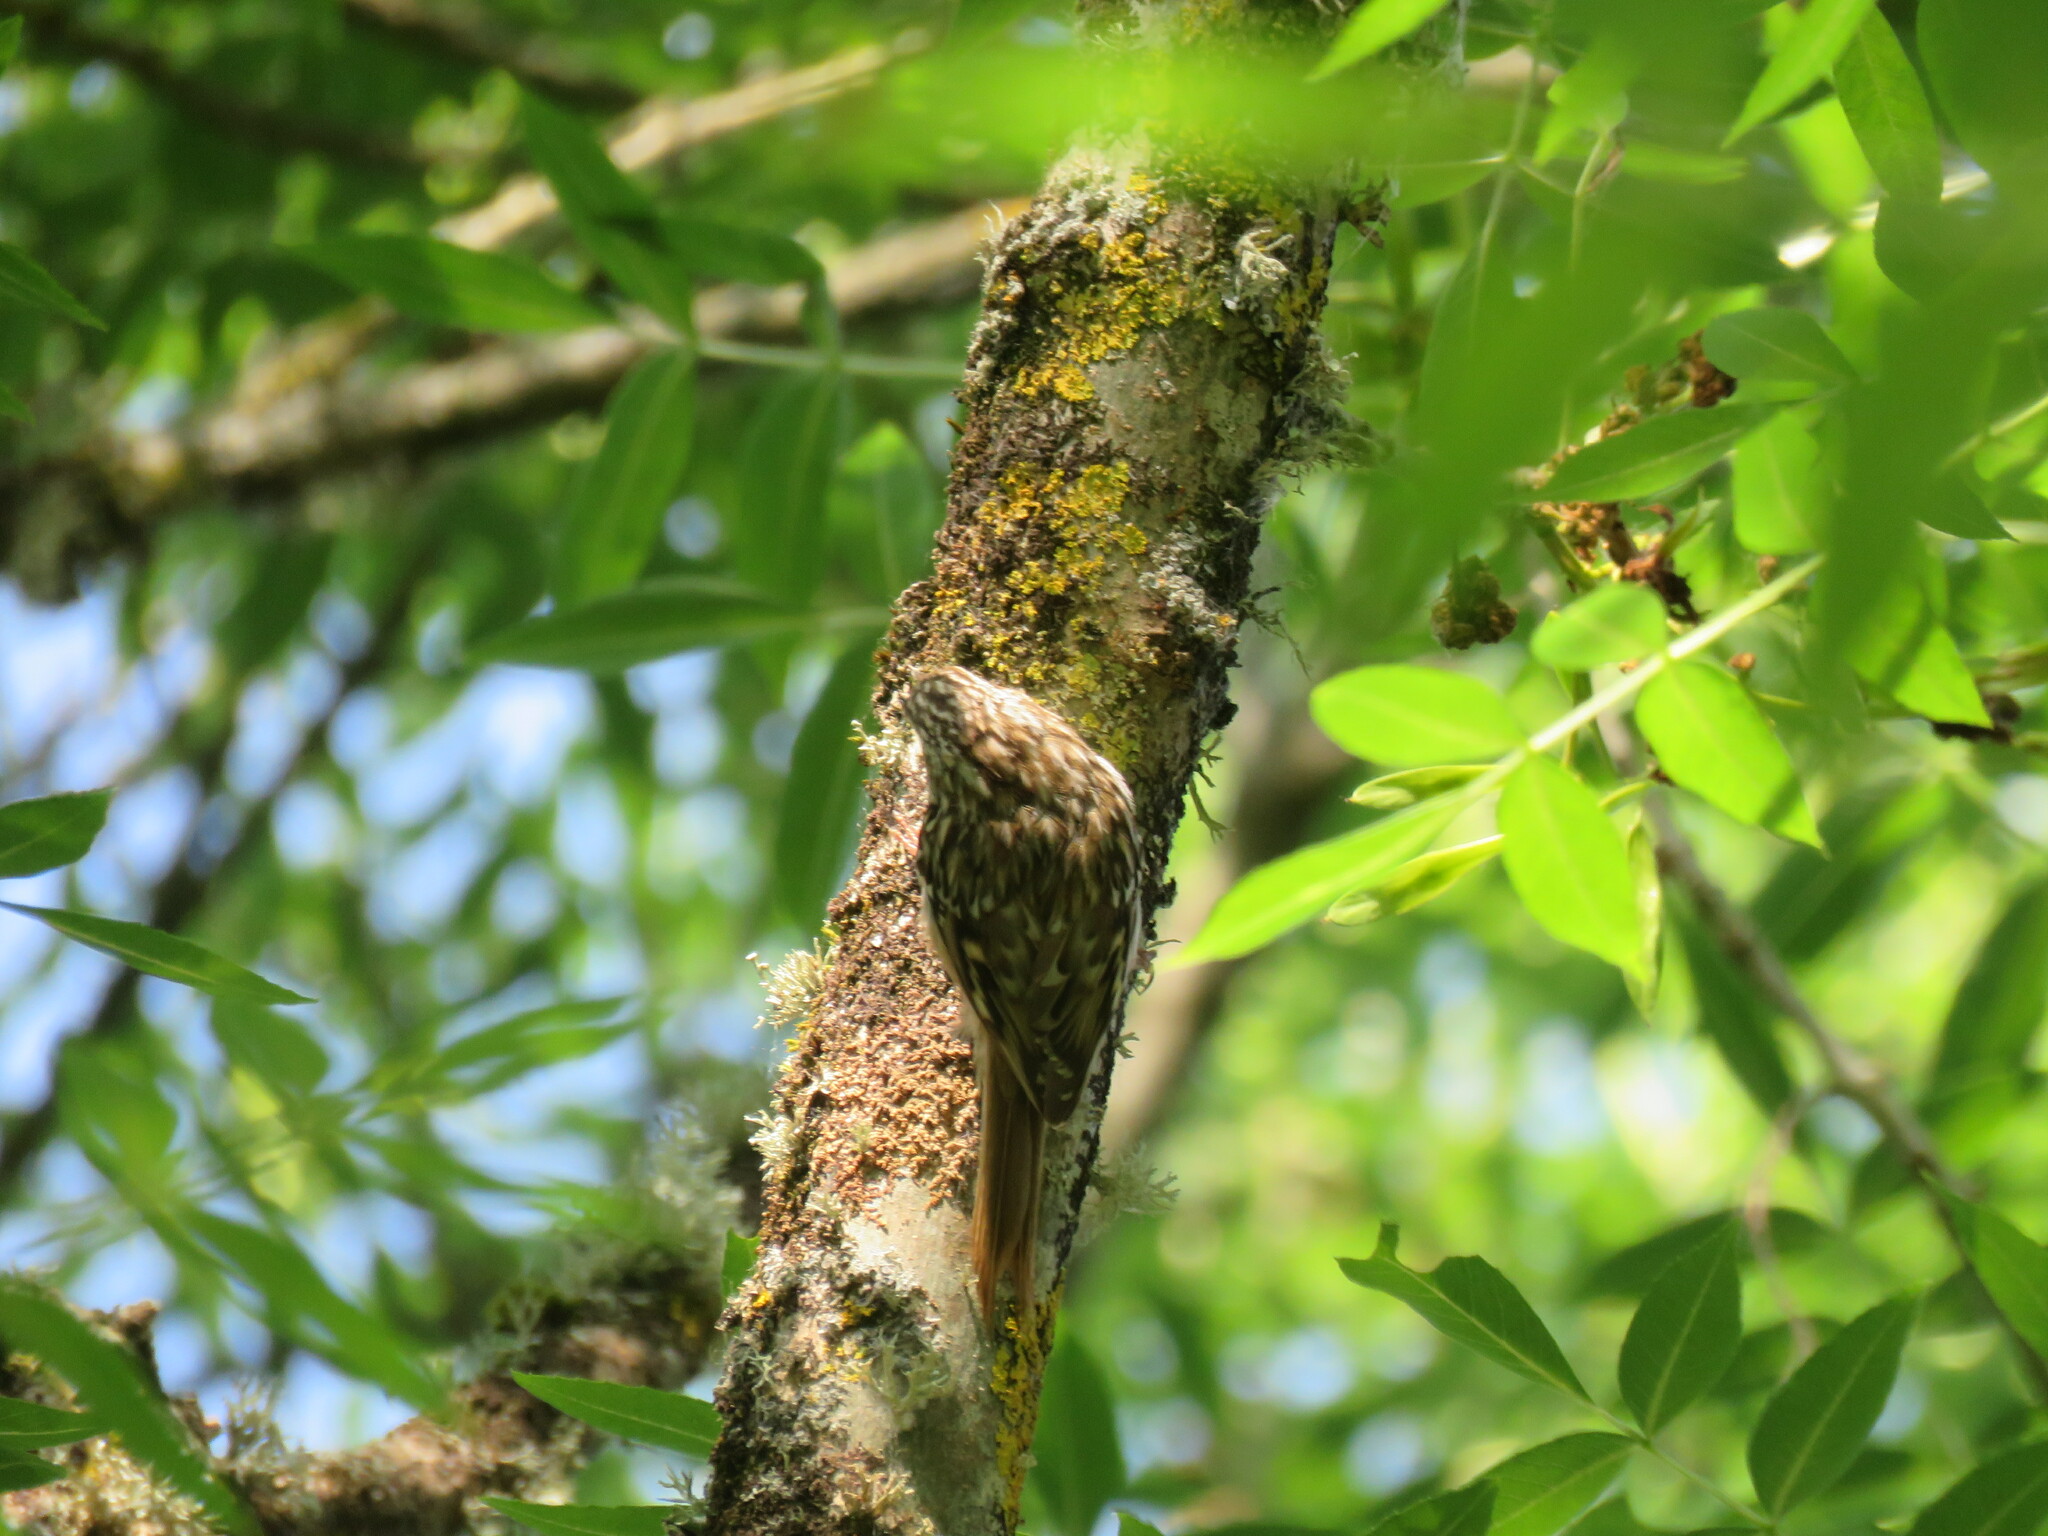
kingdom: Animalia
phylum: Chordata
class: Aves
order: Passeriformes
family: Certhiidae
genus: Certhia
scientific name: Certhia brachydactyla
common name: Short-toed treecreeper
